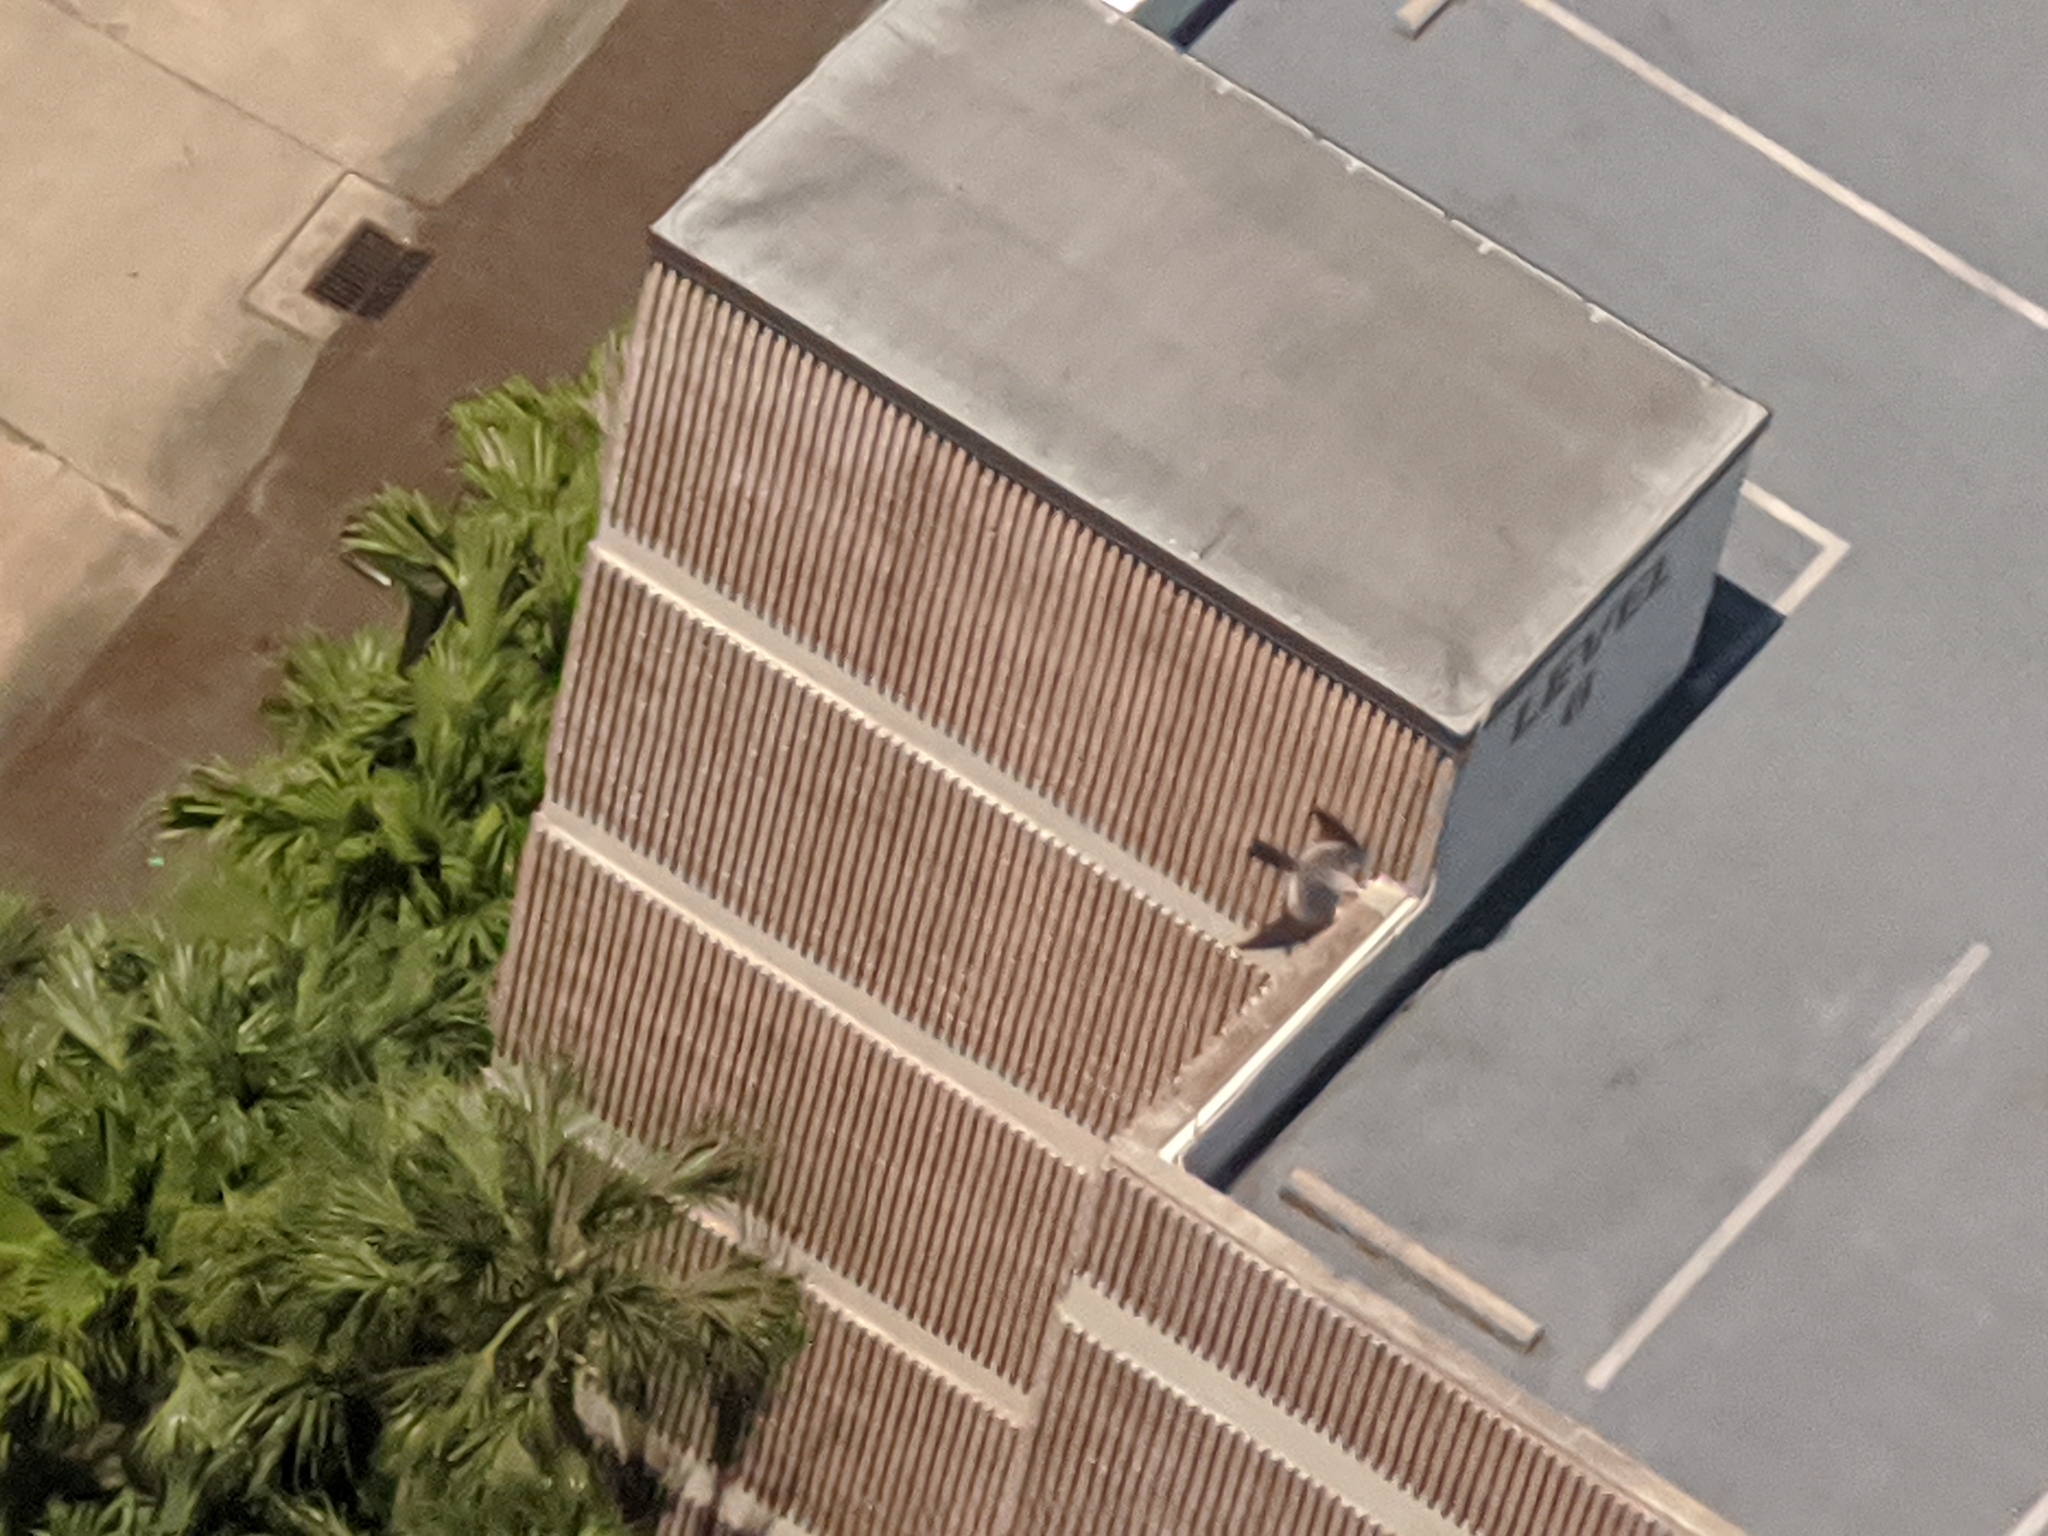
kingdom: Animalia
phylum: Chordata
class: Aves
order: Accipitriformes
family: Accipitridae
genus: Ictinia
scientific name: Ictinia mississippiensis
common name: Mississippi kite
